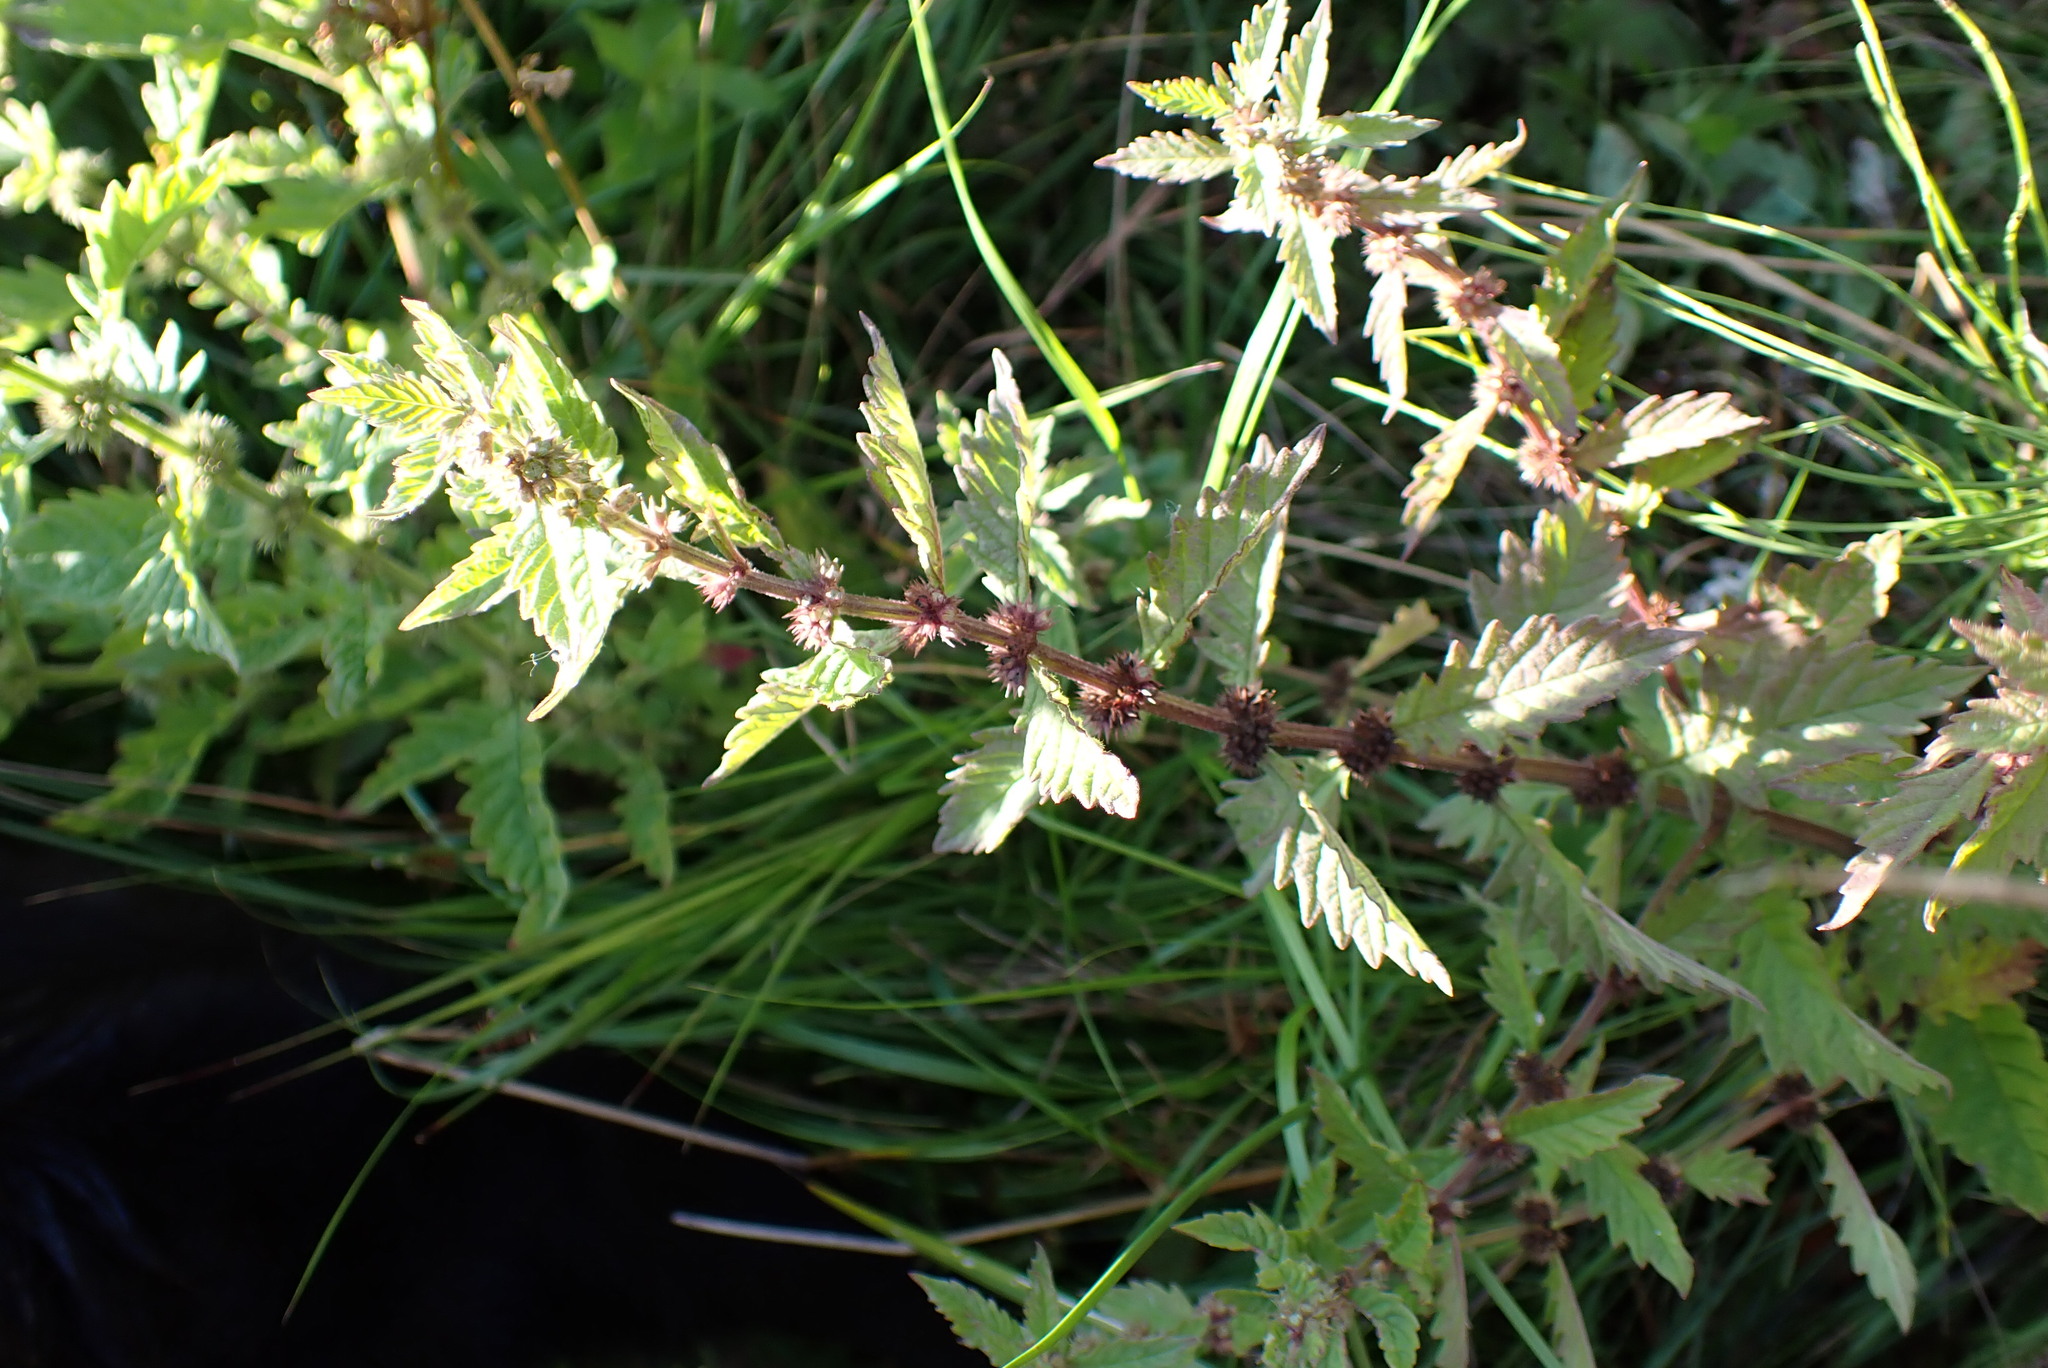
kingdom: Plantae
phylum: Tracheophyta
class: Magnoliopsida
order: Lamiales
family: Lamiaceae
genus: Lycopus
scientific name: Lycopus europaeus
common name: European bugleweed
